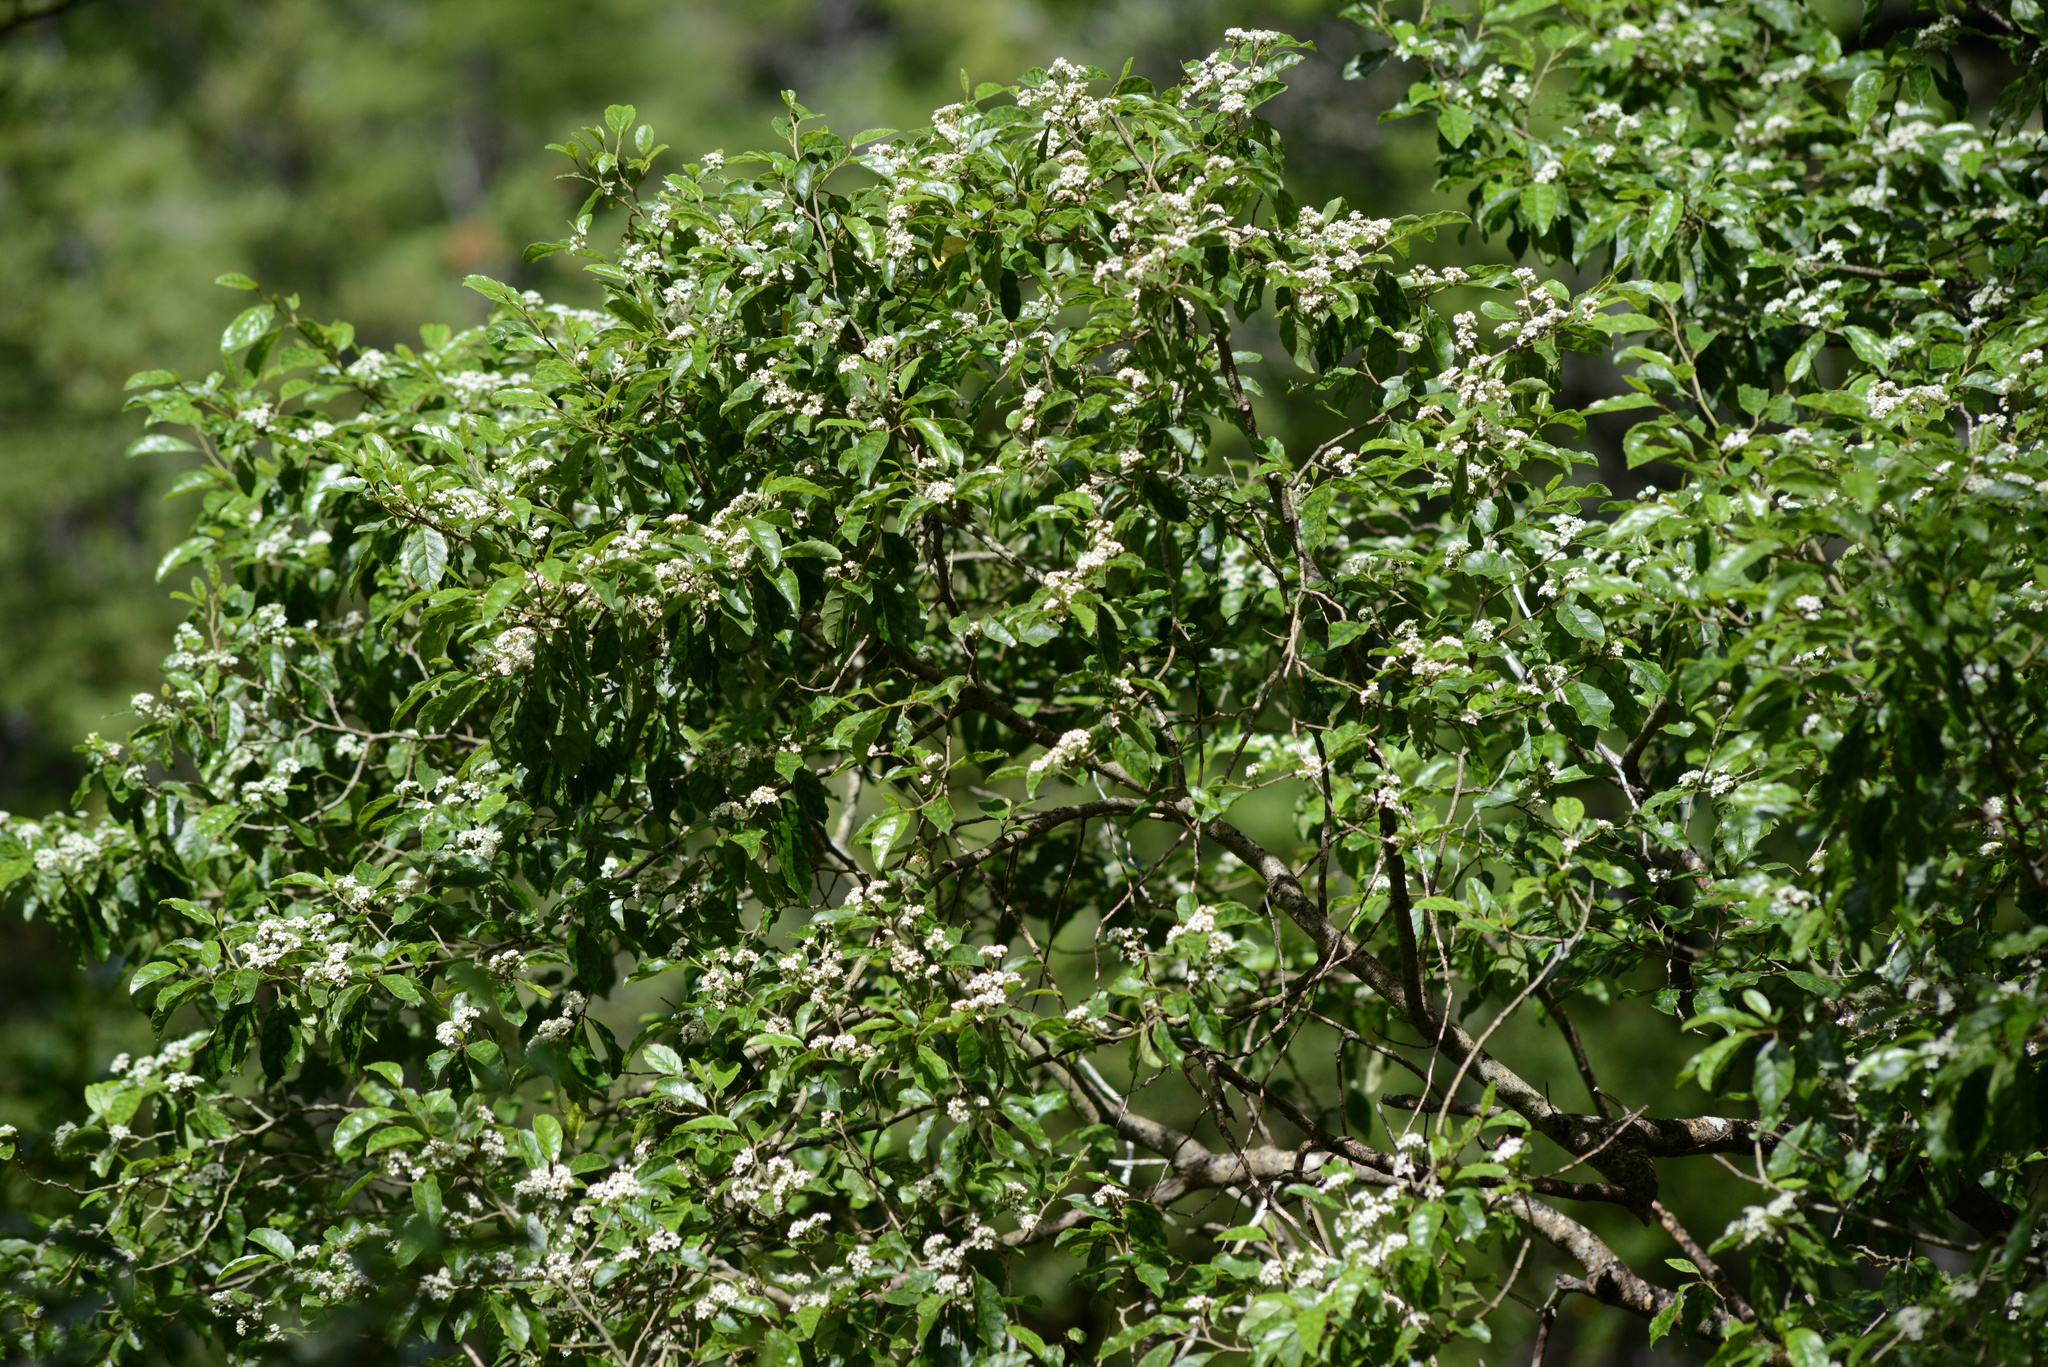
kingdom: Plantae
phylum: Tracheophyta
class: Magnoliopsida
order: Asterales
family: Rousseaceae
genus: Carpodetus
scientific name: Carpodetus serratus
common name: White mapau
